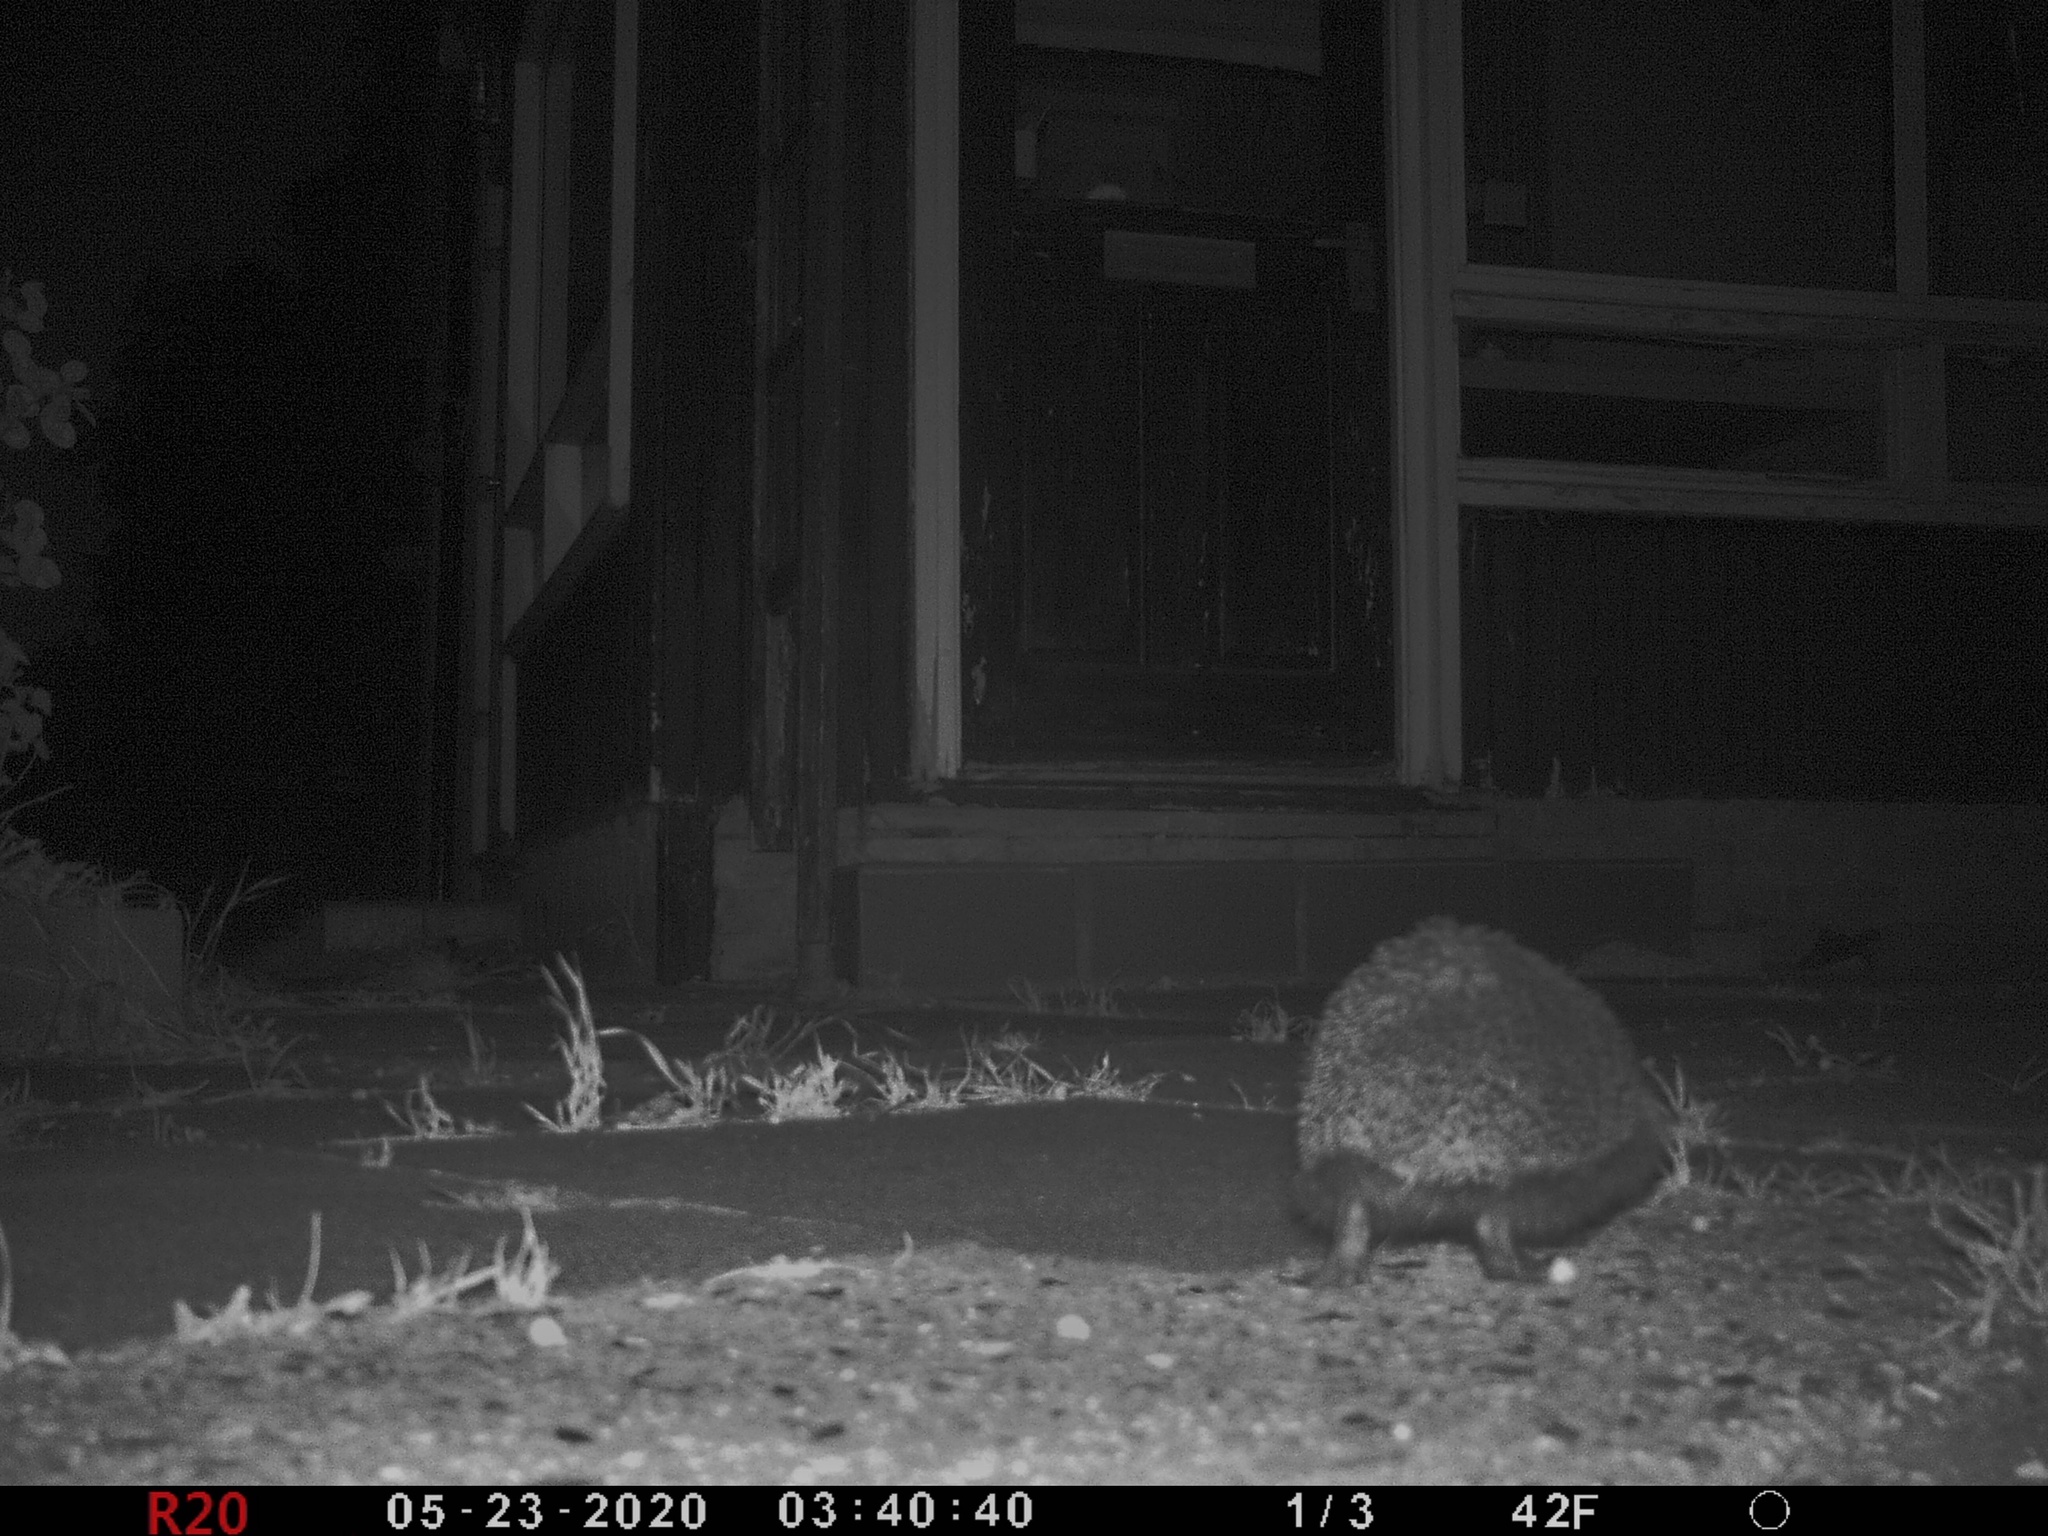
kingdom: Animalia
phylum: Chordata
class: Mammalia
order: Erinaceomorpha
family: Erinaceidae
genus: Erinaceus
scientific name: Erinaceus europaeus
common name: West european hedgehog
